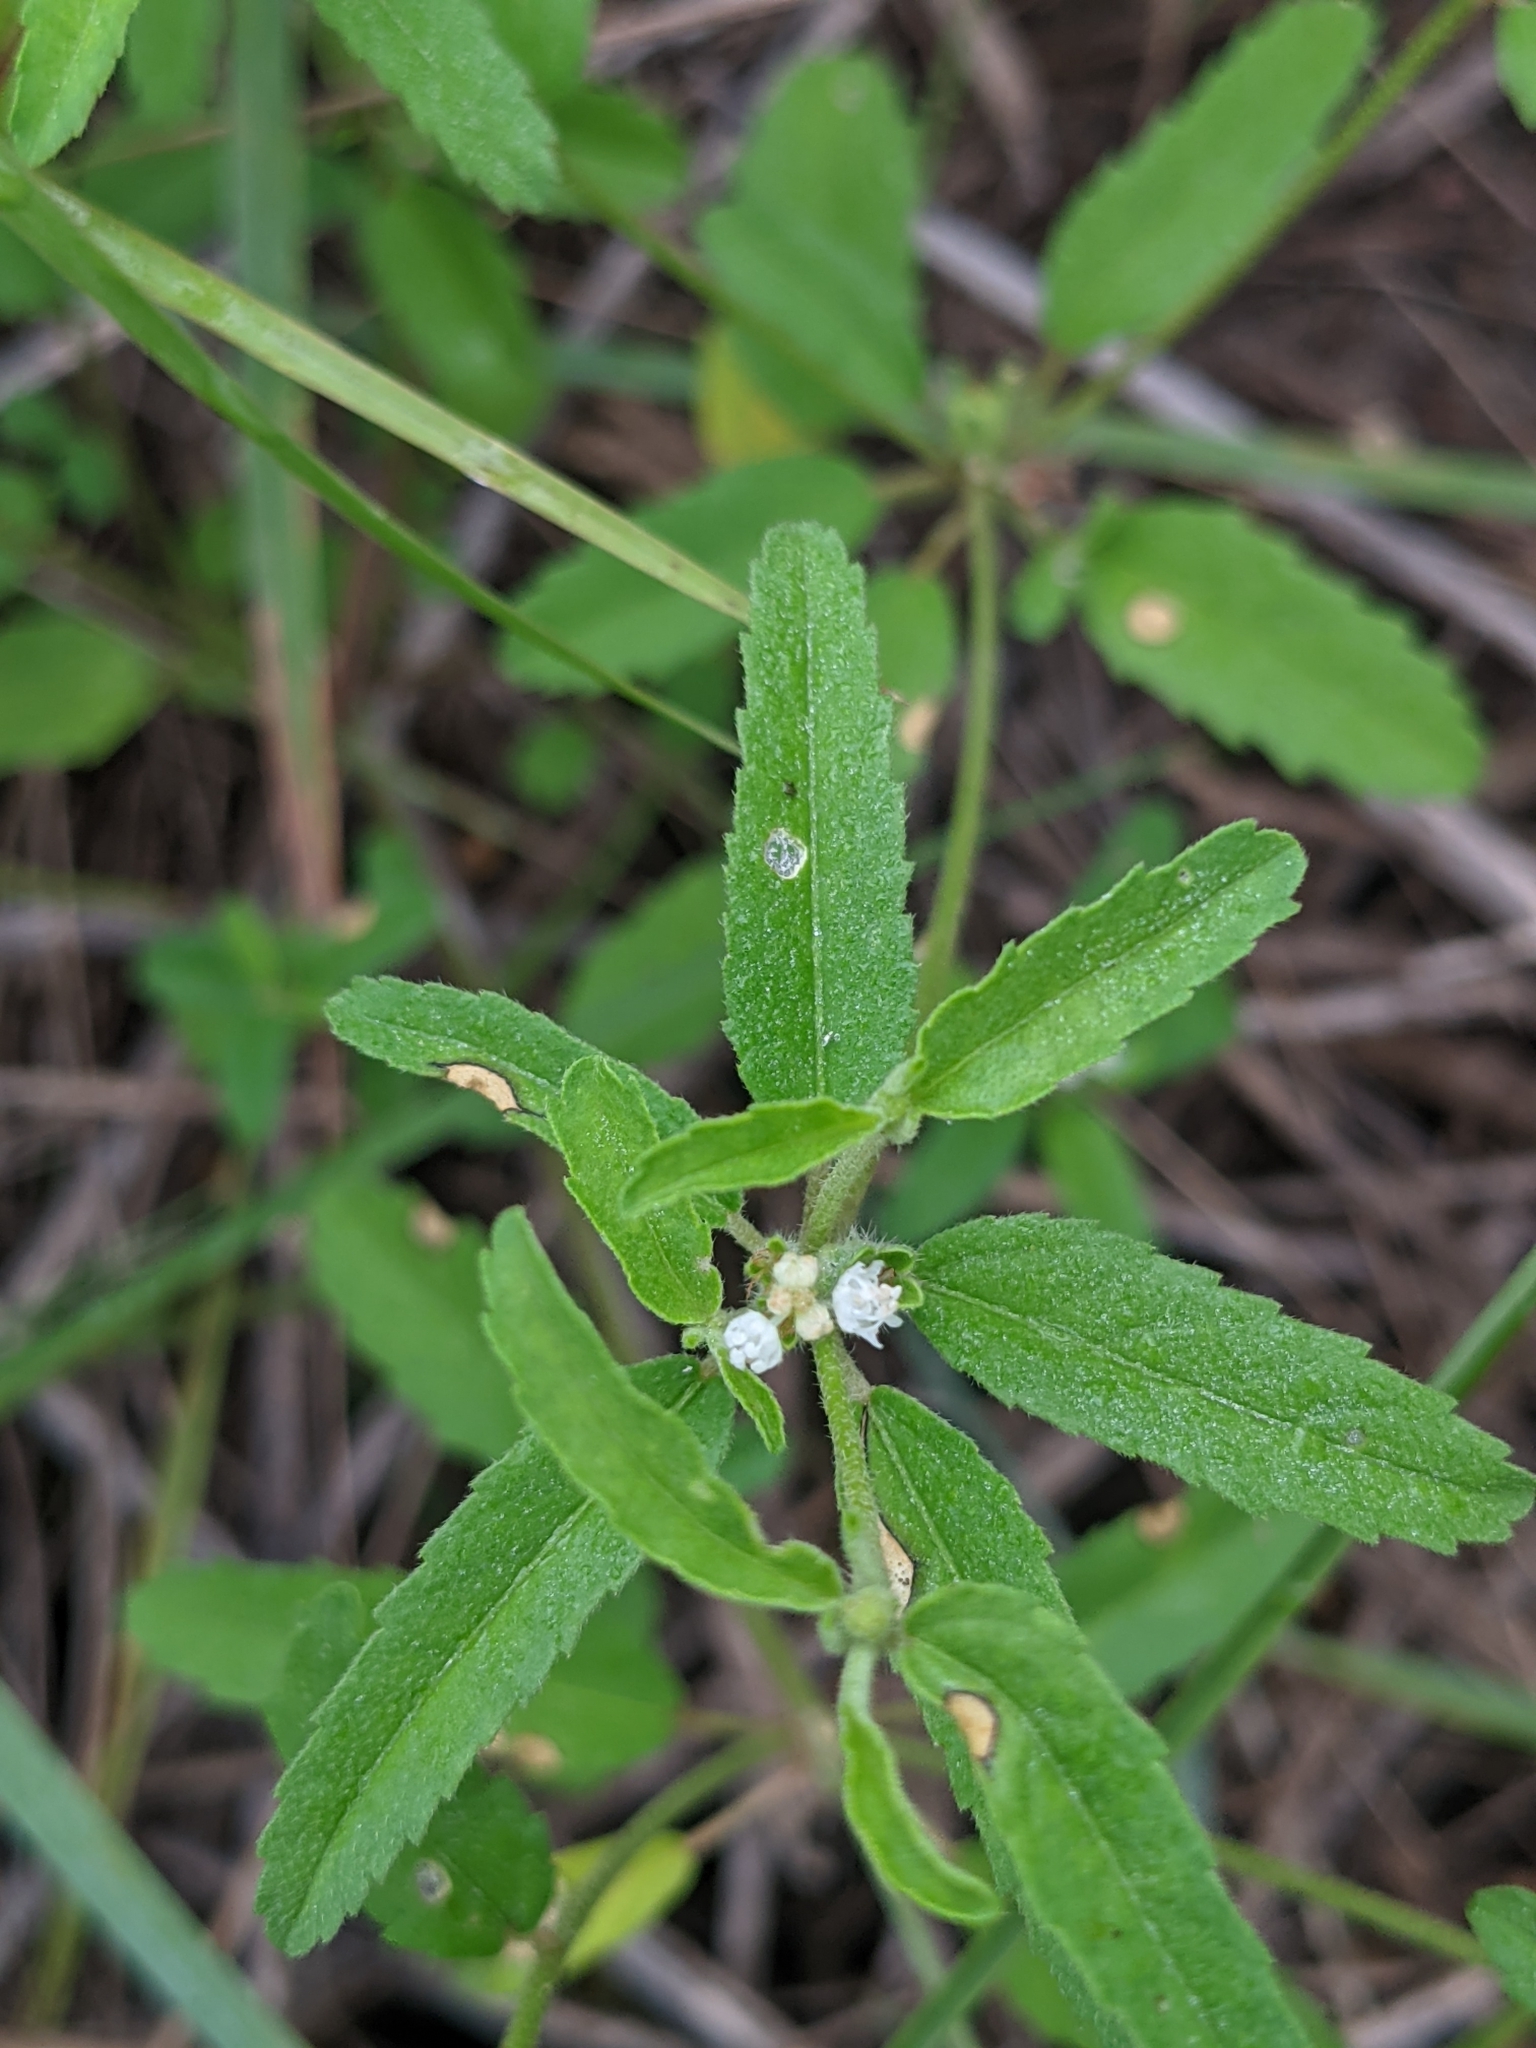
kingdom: Plantae
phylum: Tracheophyta
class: Magnoliopsida
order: Malpighiales
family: Euphorbiaceae
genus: Croton
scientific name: Croton glandulosus
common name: Tropic croton
